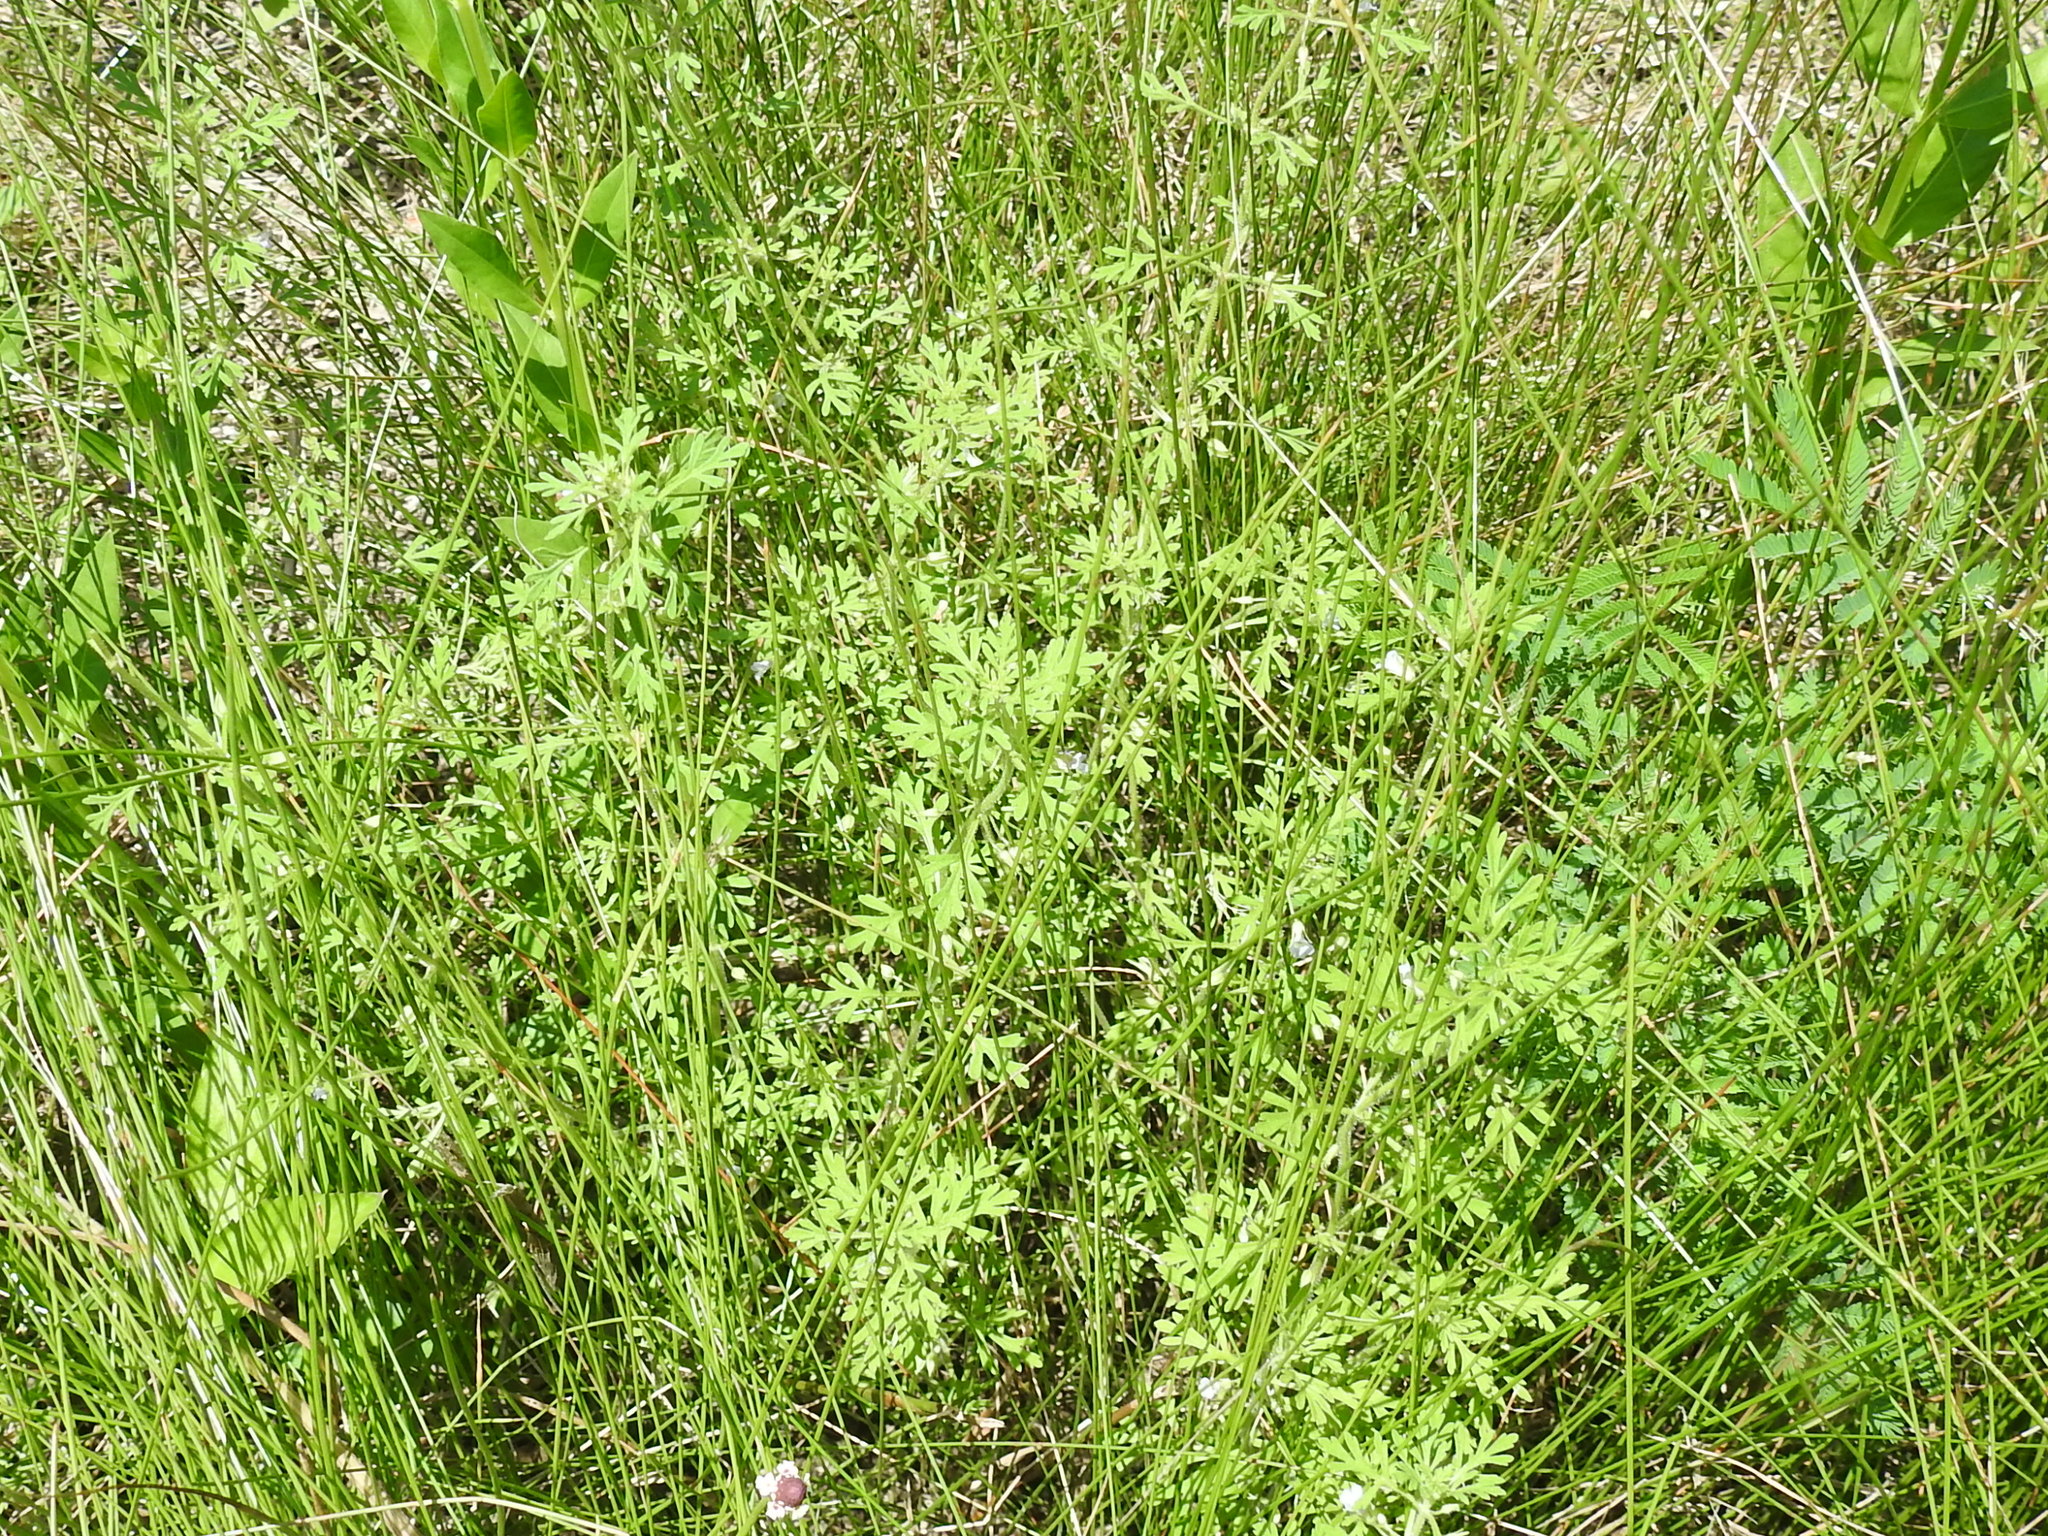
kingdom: Plantae
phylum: Tracheophyta
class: Magnoliopsida
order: Lamiales
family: Plantaginaceae
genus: Leucospora
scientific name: Leucospora multifida
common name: Narrow-leaf paleseed
